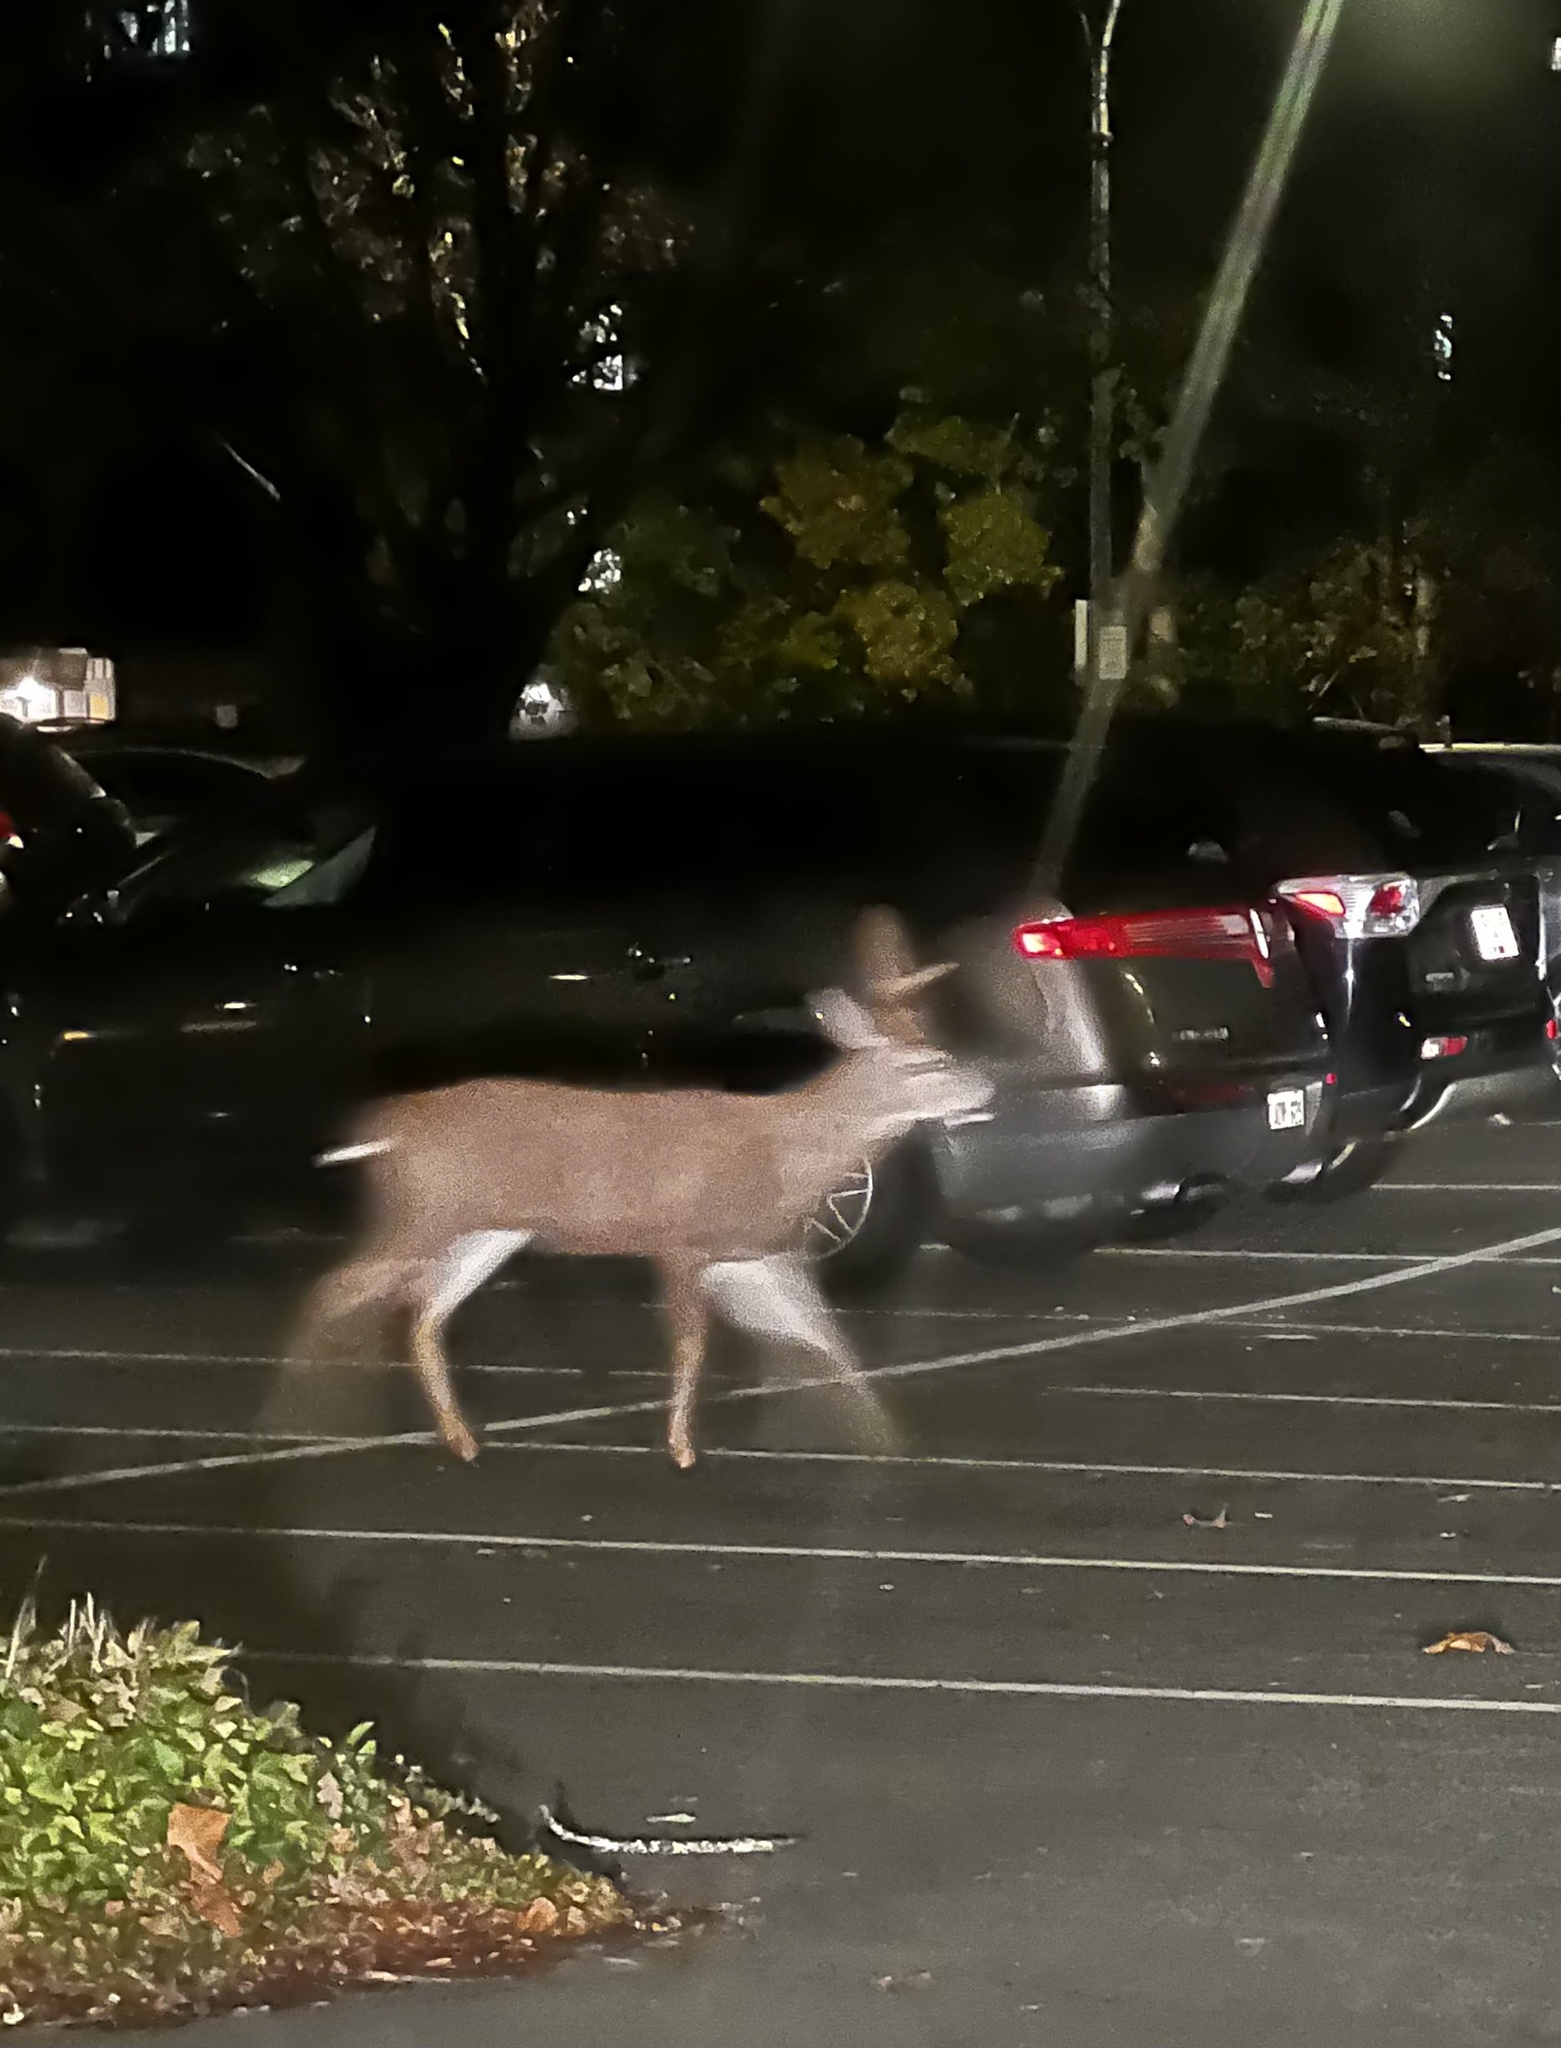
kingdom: Animalia
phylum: Chordata
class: Mammalia
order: Artiodactyla
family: Cervidae
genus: Odocoileus
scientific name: Odocoileus hemionus
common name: Mule deer
